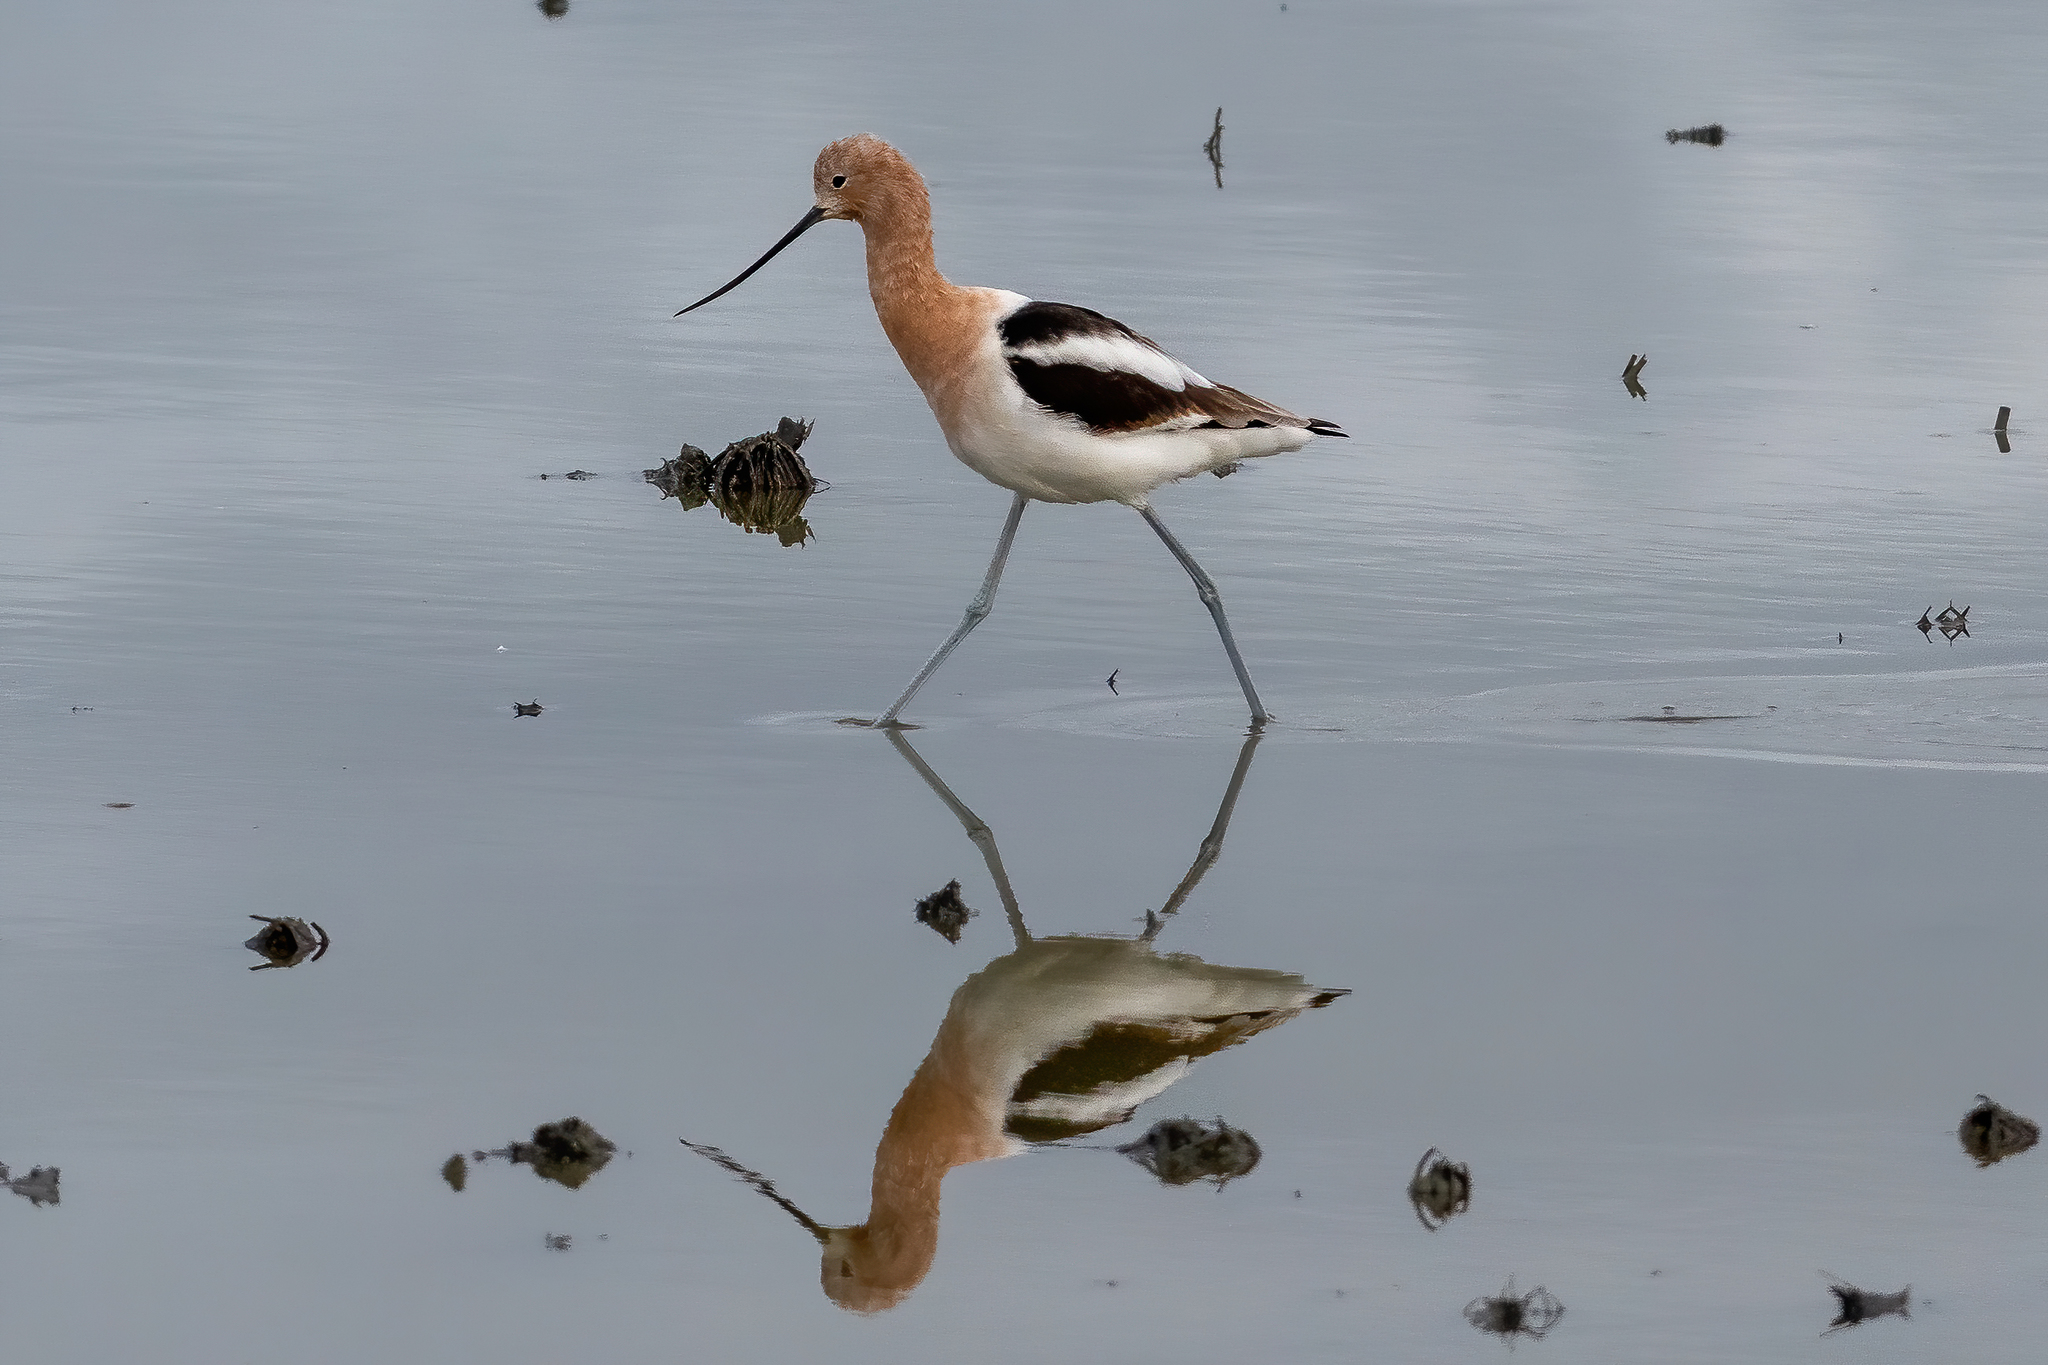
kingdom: Animalia
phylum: Chordata
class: Aves
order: Charadriiformes
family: Recurvirostridae
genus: Recurvirostra
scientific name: Recurvirostra americana
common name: American avocet
